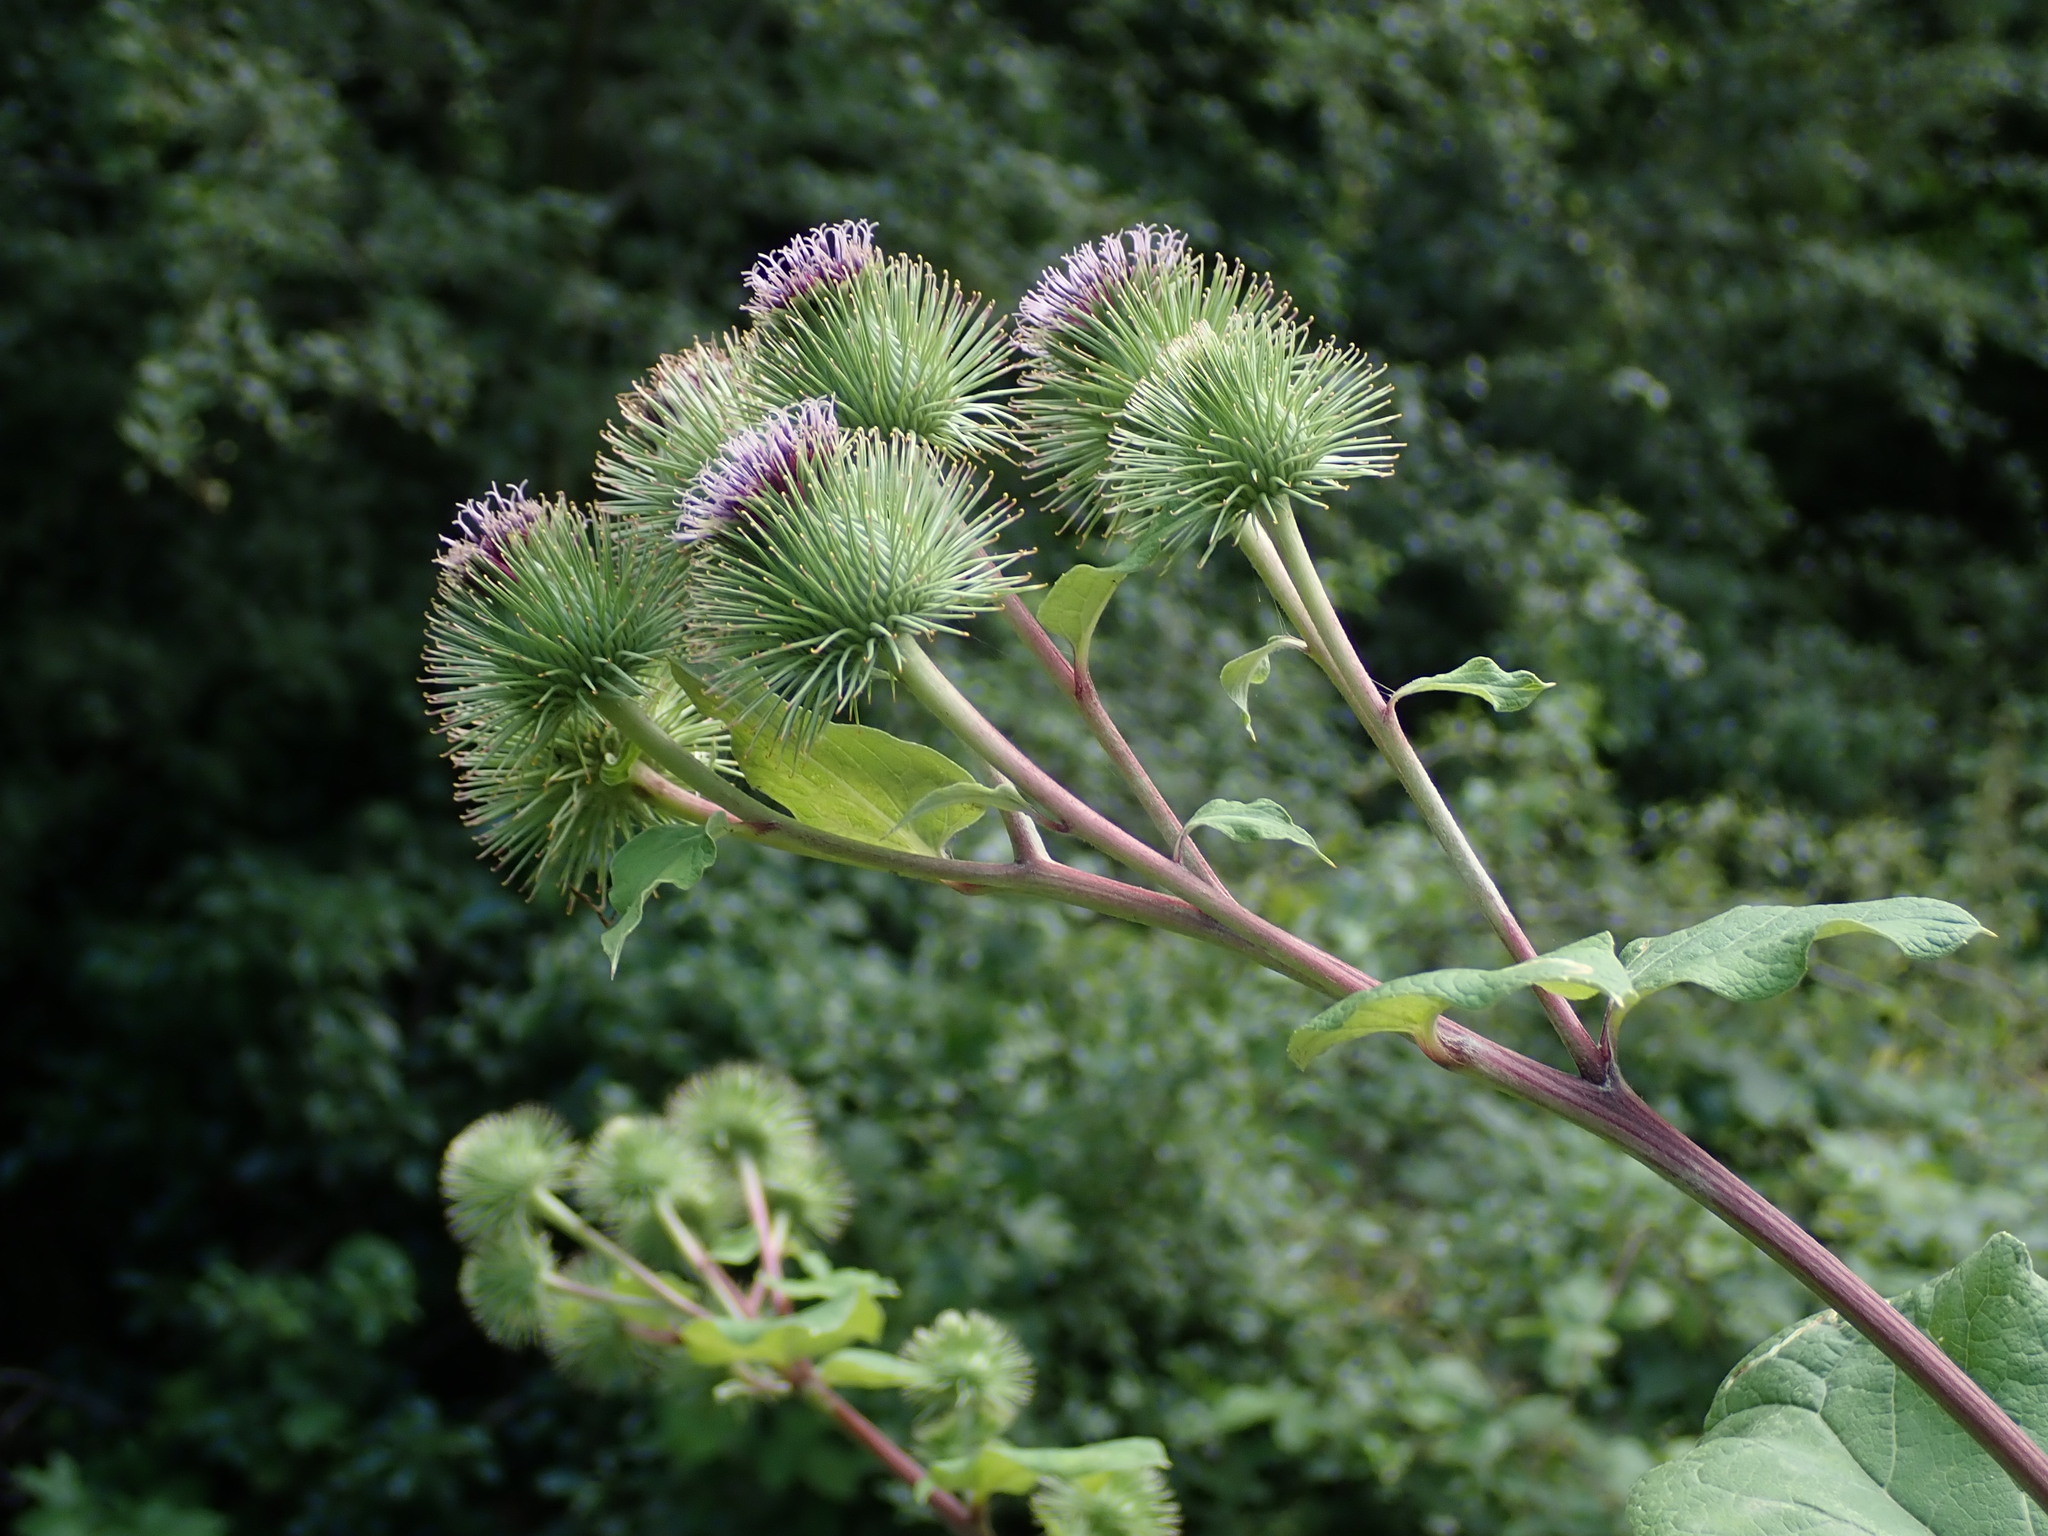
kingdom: Plantae
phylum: Tracheophyta
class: Magnoliopsida
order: Asterales
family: Asteraceae
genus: Arctium
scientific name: Arctium lappa
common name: Greater burdock
